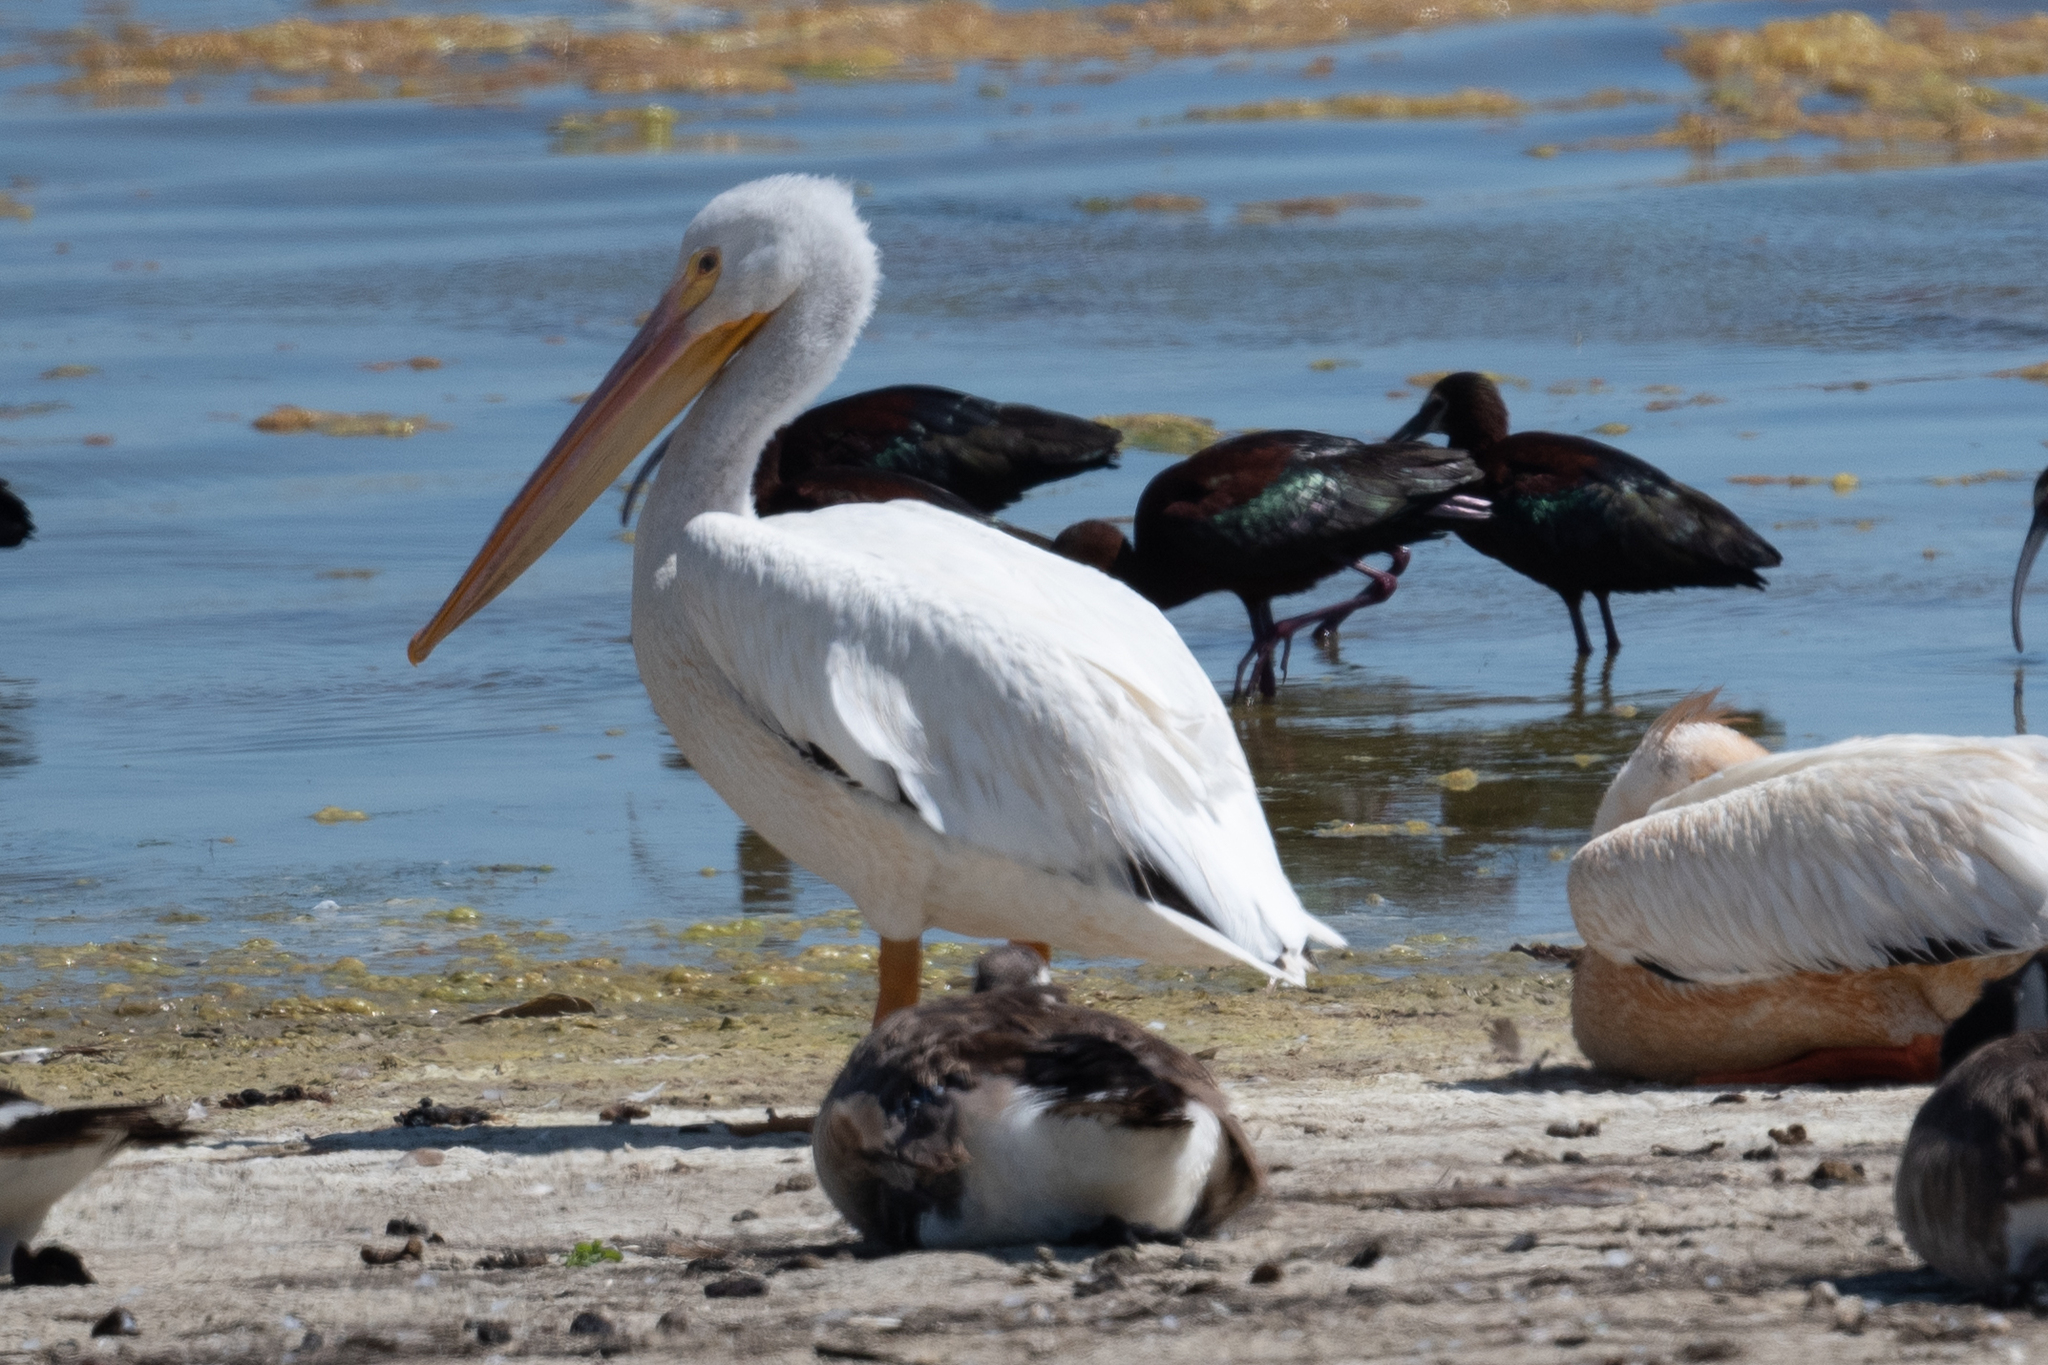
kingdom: Animalia
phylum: Chordata
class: Aves
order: Pelecaniformes
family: Pelecanidae
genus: Pelecanus
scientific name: Pelecanus erythrorhynchos
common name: American white pelican
